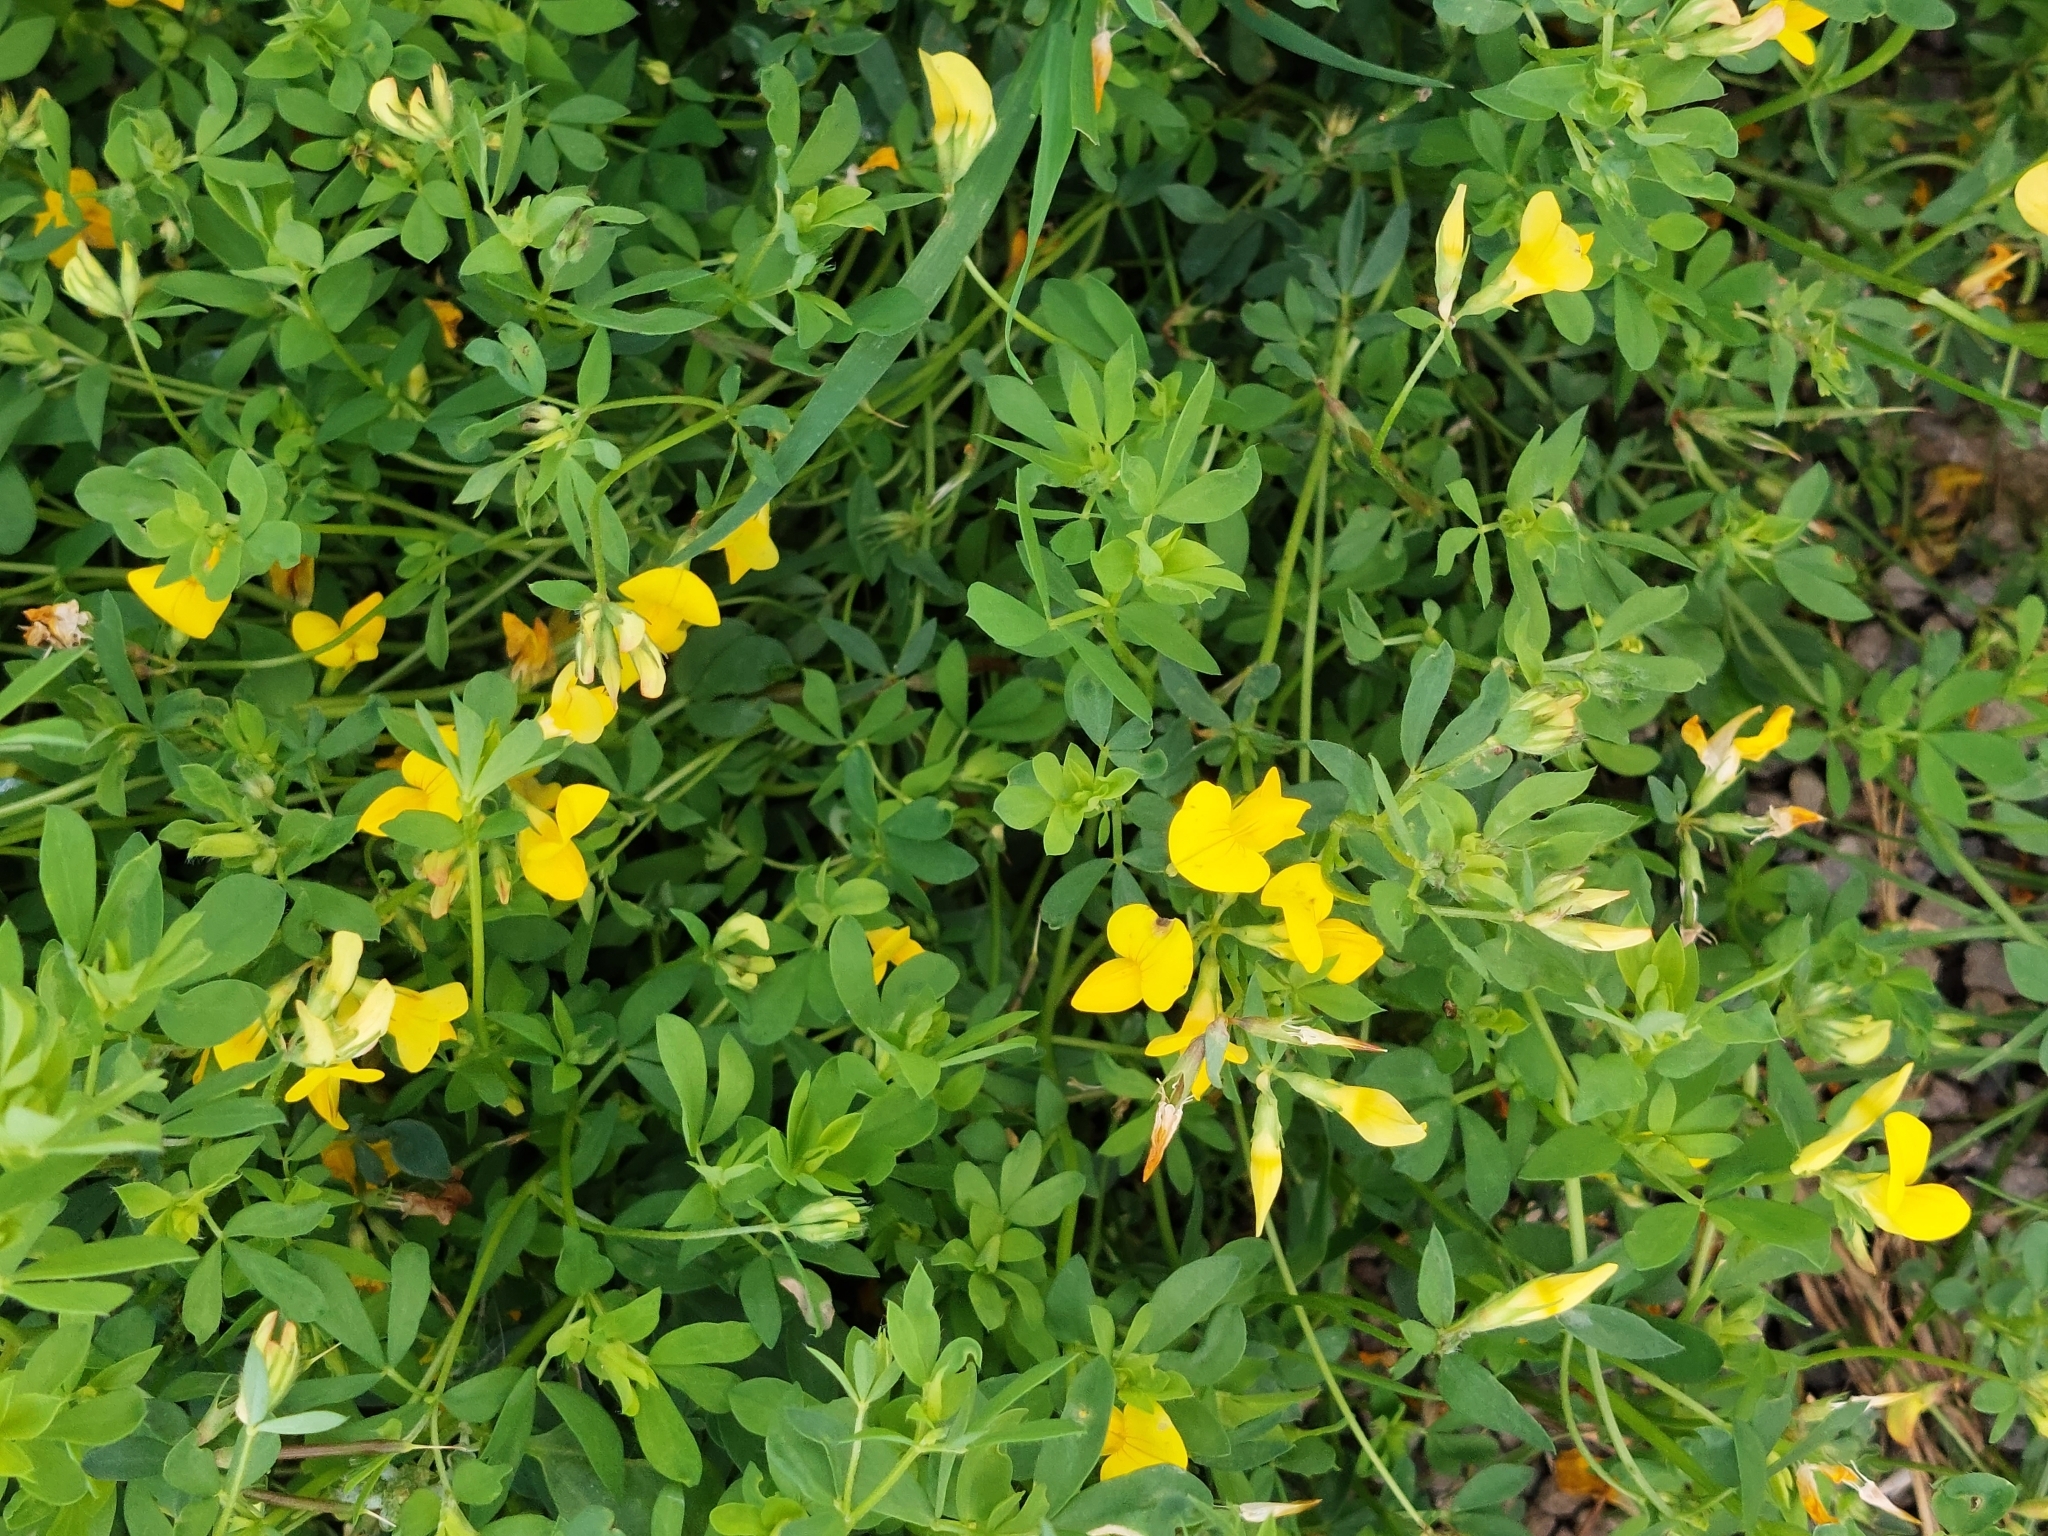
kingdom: Plantae
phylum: Tracheophyta
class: Magnoliopsida
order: Fabales
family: Fabaceae
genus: Lotus
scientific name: Lotus corniculatus
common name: Common bird's-foot-trefoil
